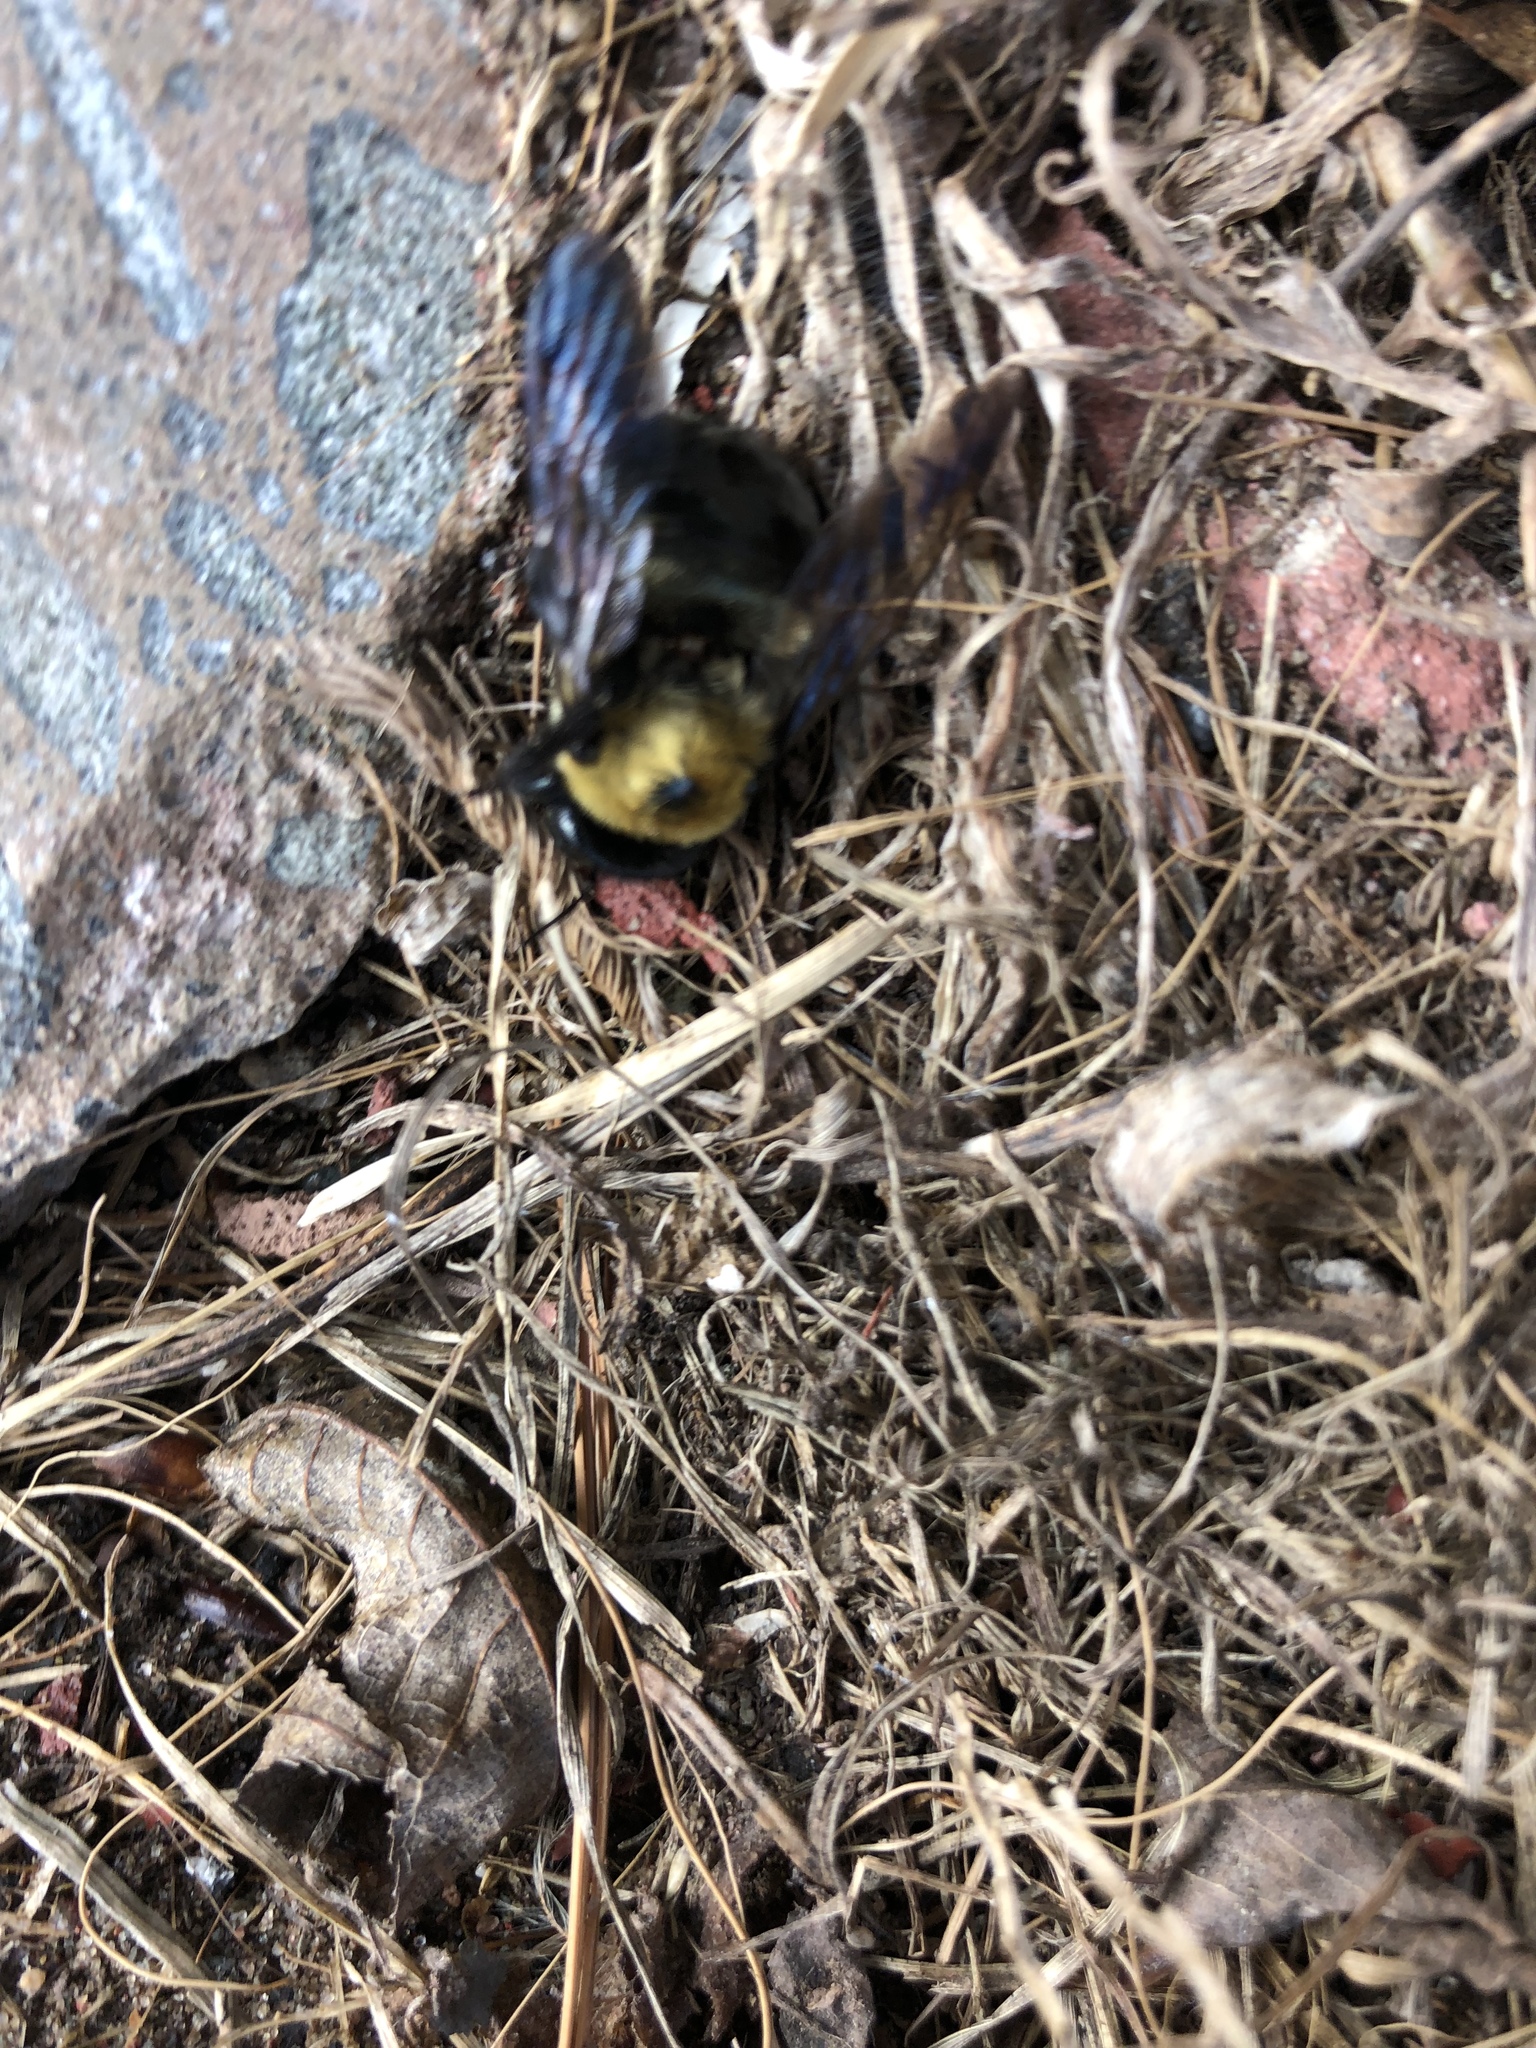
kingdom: Animalia
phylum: Arthropoda
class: Insecta
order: Hymenoptera
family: Apidae
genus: Xylocopa
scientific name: Xylocopa virginica
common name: Carpenter bee
